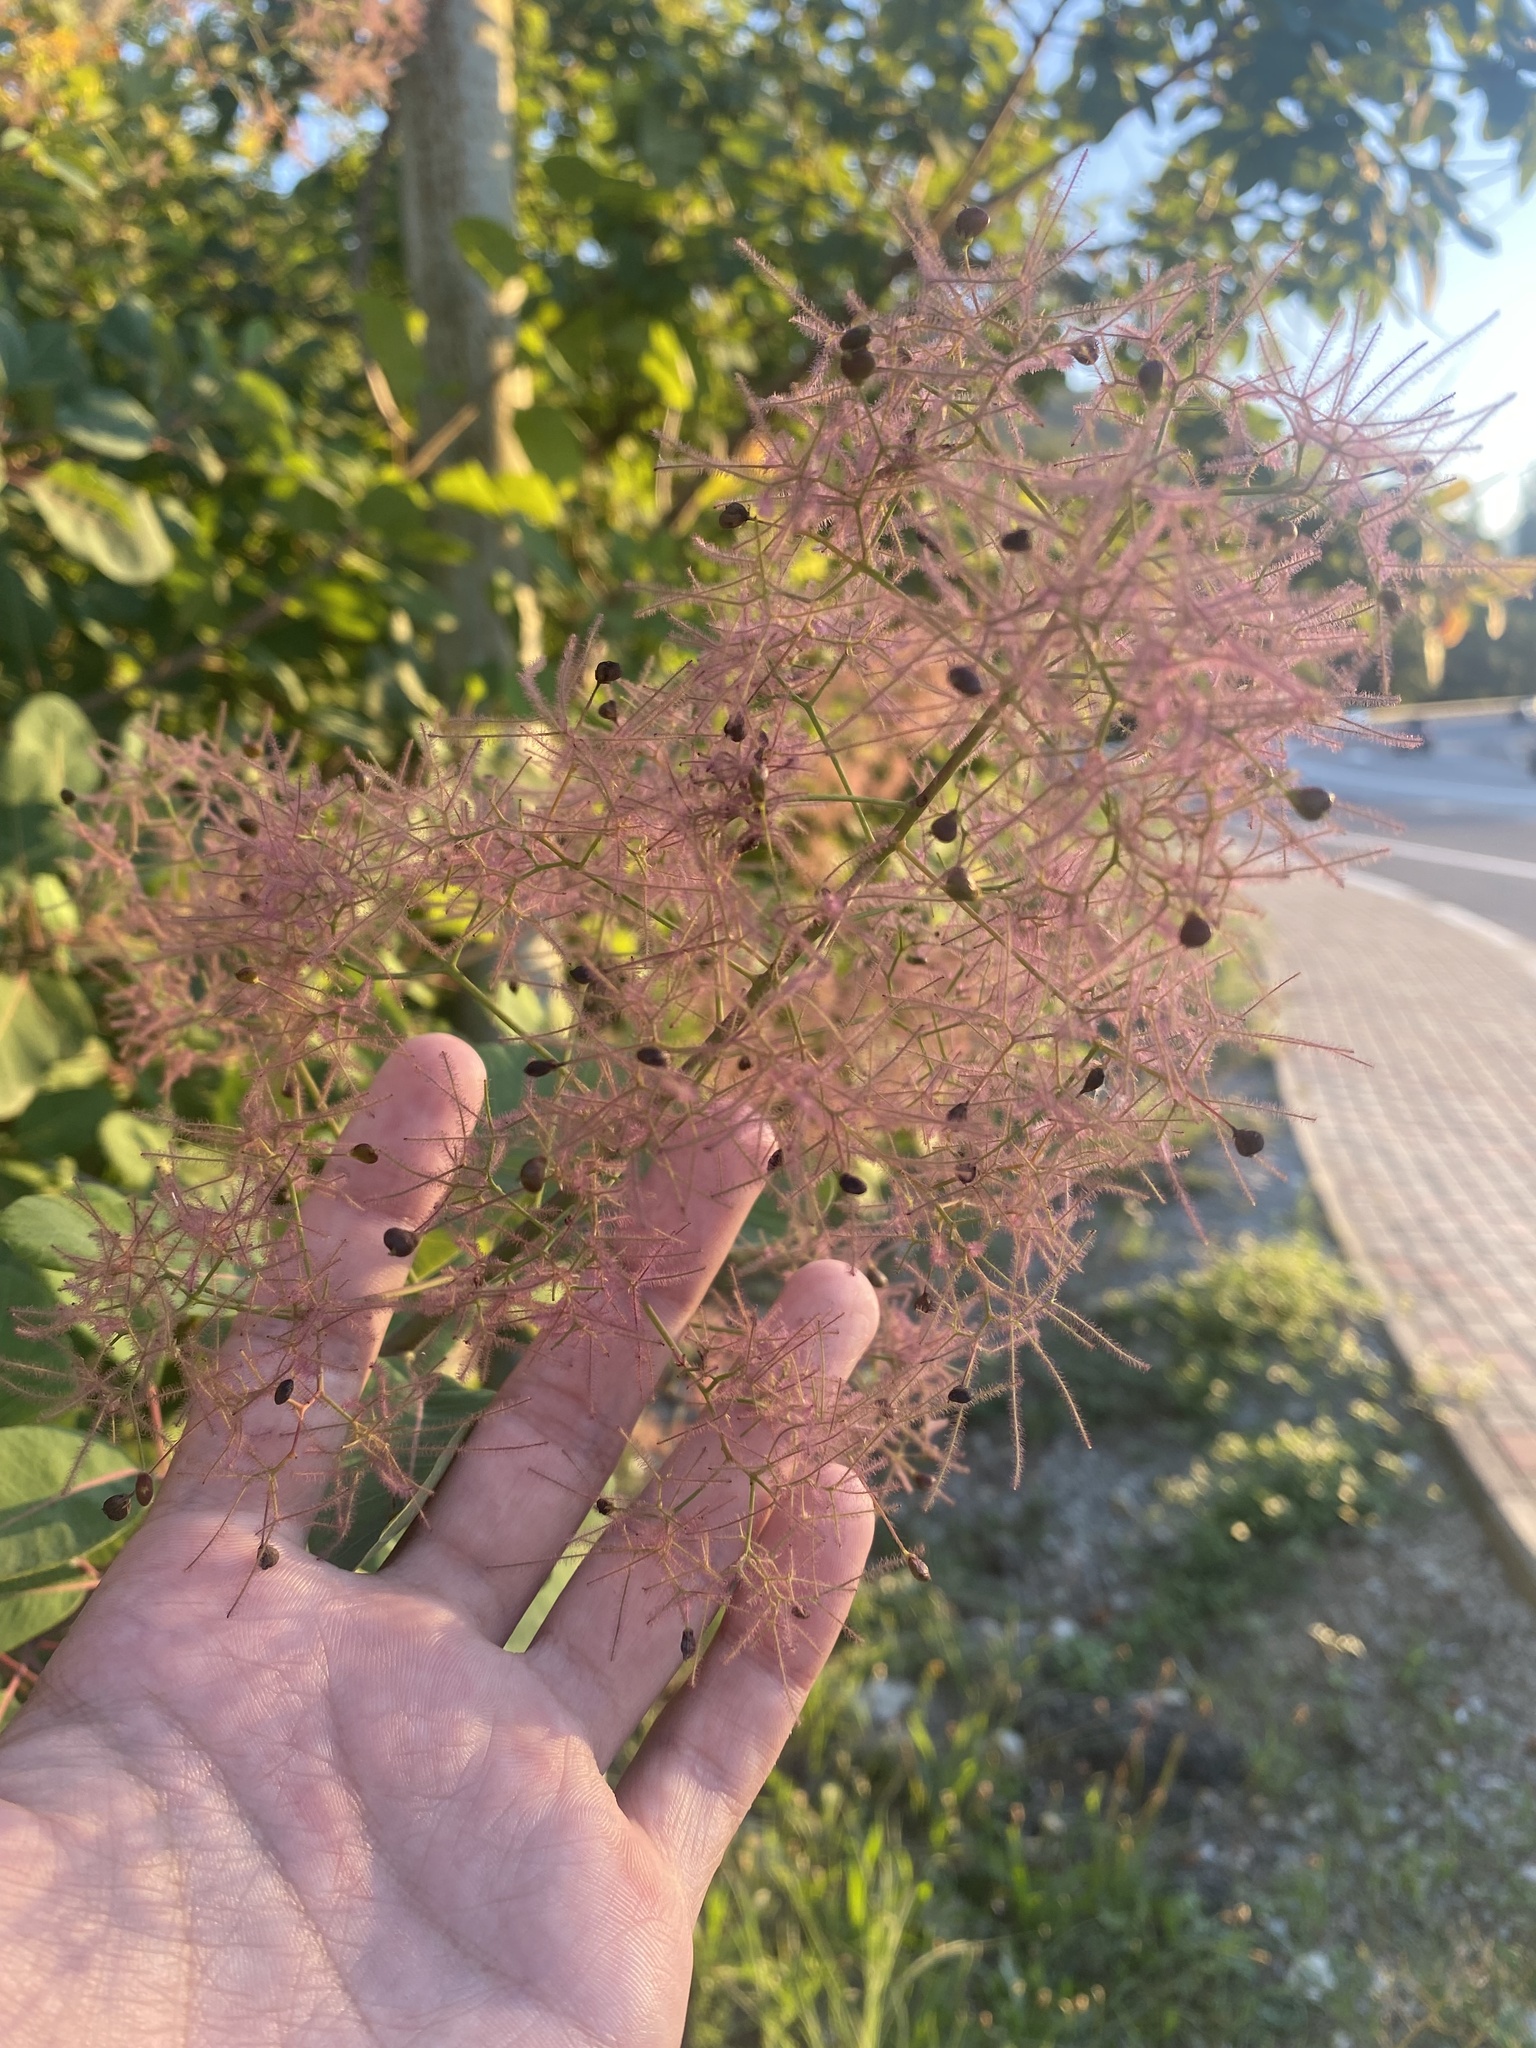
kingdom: Plantae
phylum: Tracheophyta
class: Magnoliopsida
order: Sapindales
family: Anacardiaceae
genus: Cotinus
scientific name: Cotinus coggygria
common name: Smoke-tree
